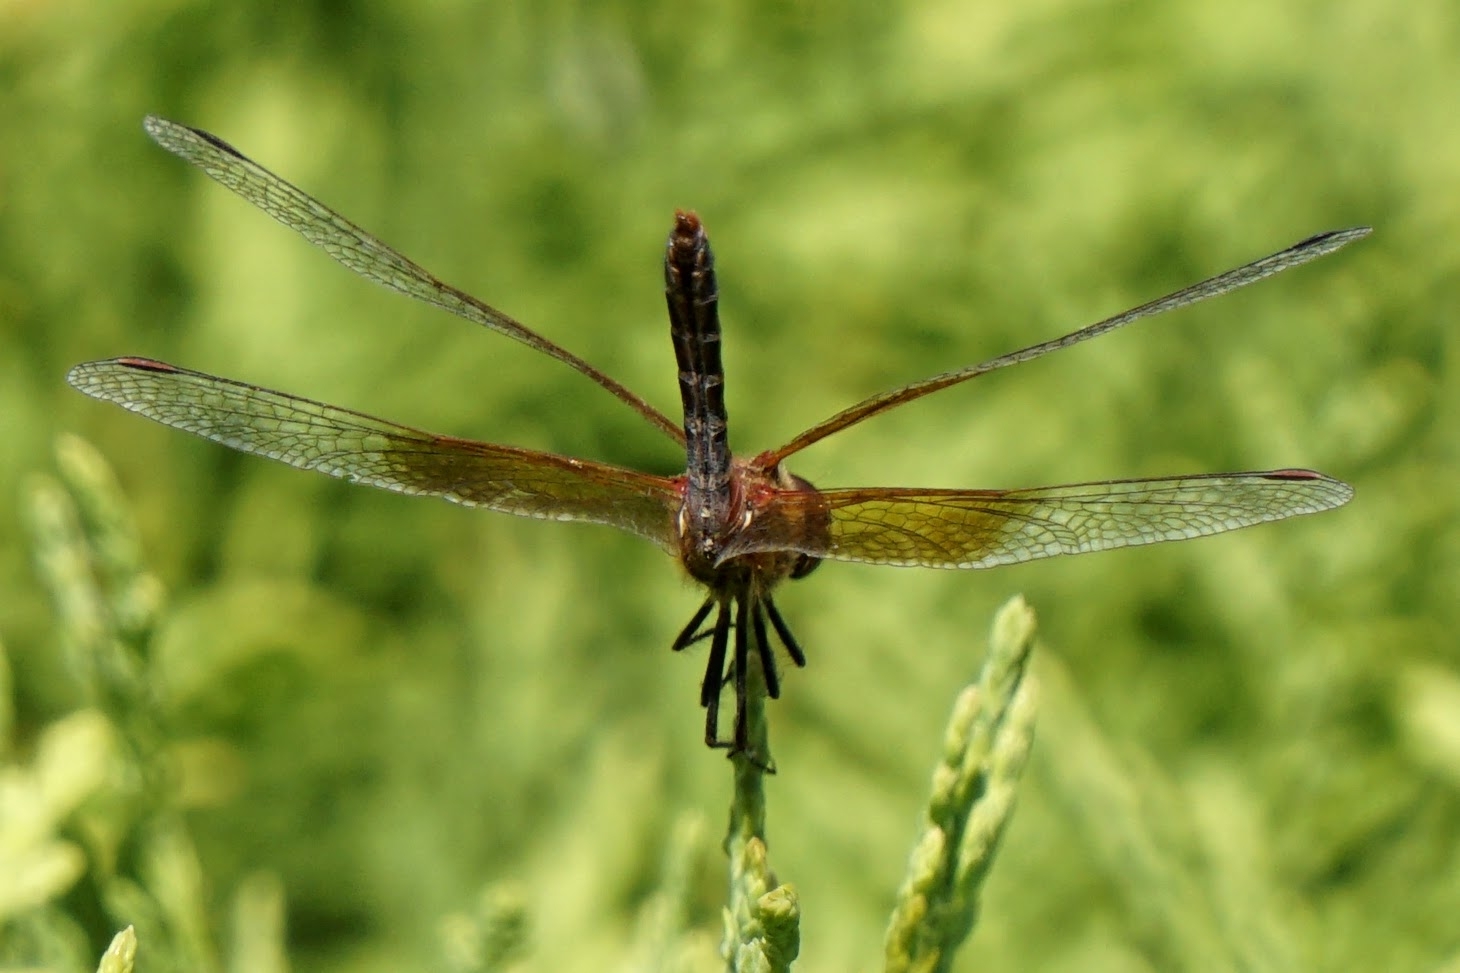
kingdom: Animalia
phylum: Arthropoda
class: Insecta
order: Odonata
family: Libellulidae
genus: Sympetrum
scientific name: Sympetrum semicinctum
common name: Band-winged meadowhawk
